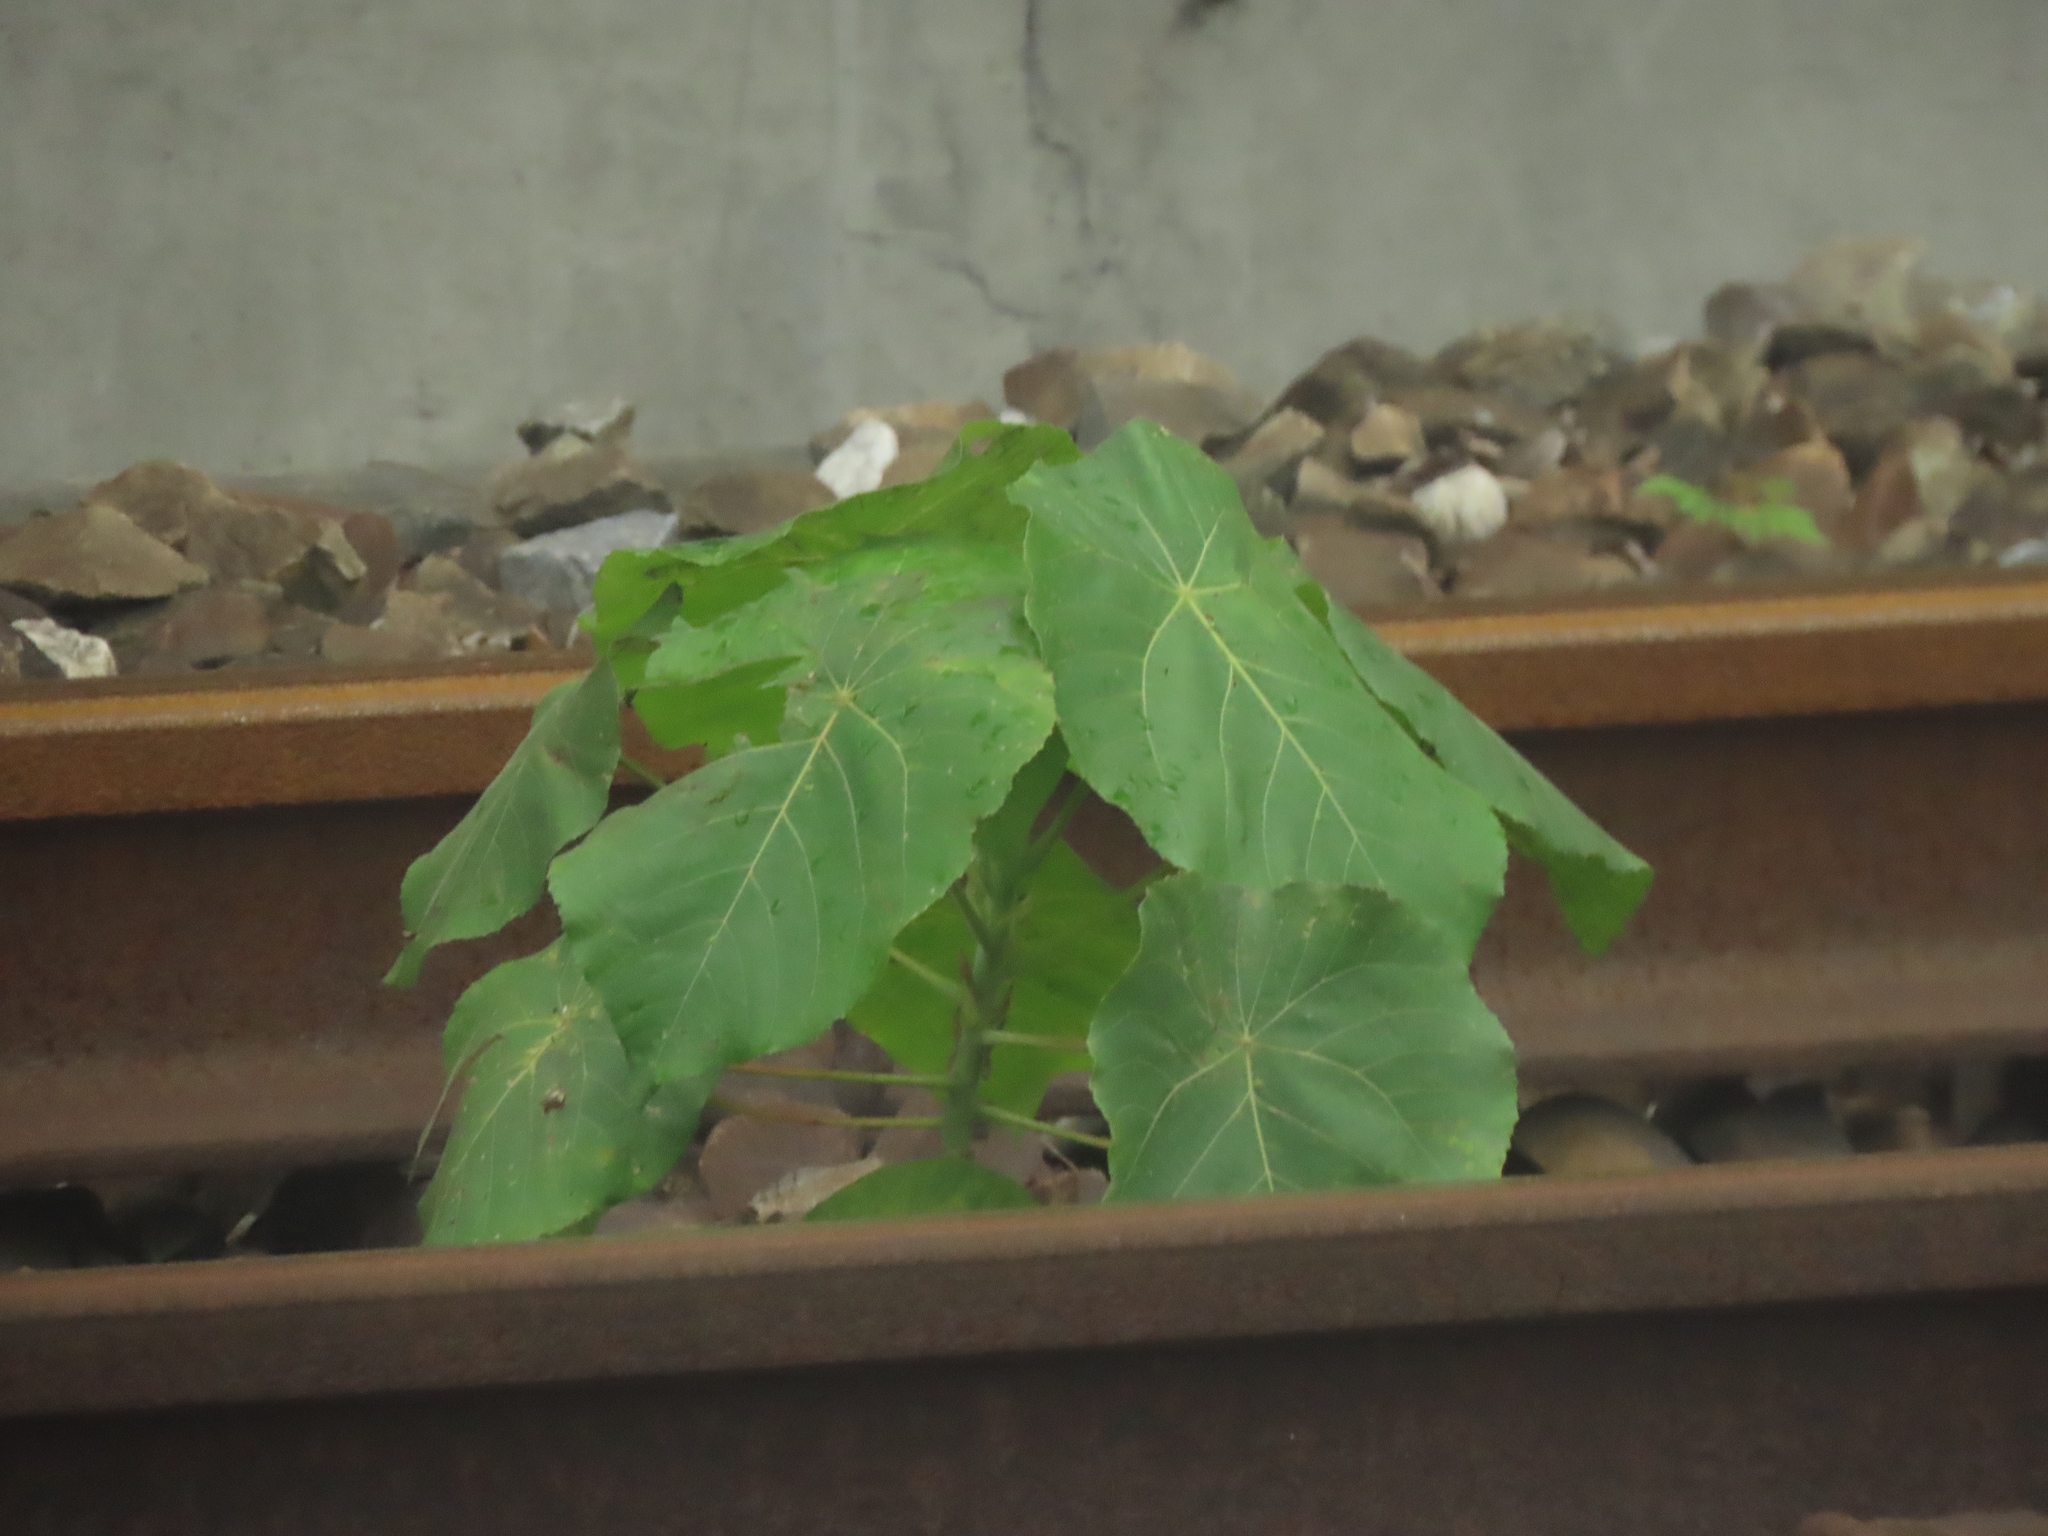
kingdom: Plantae
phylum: Tracheophyta
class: Magnoliopsida
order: Malpighiales
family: Euphorbiaceae
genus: Macaranga
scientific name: Macaranga tanarius
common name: Parasol leaf tree
